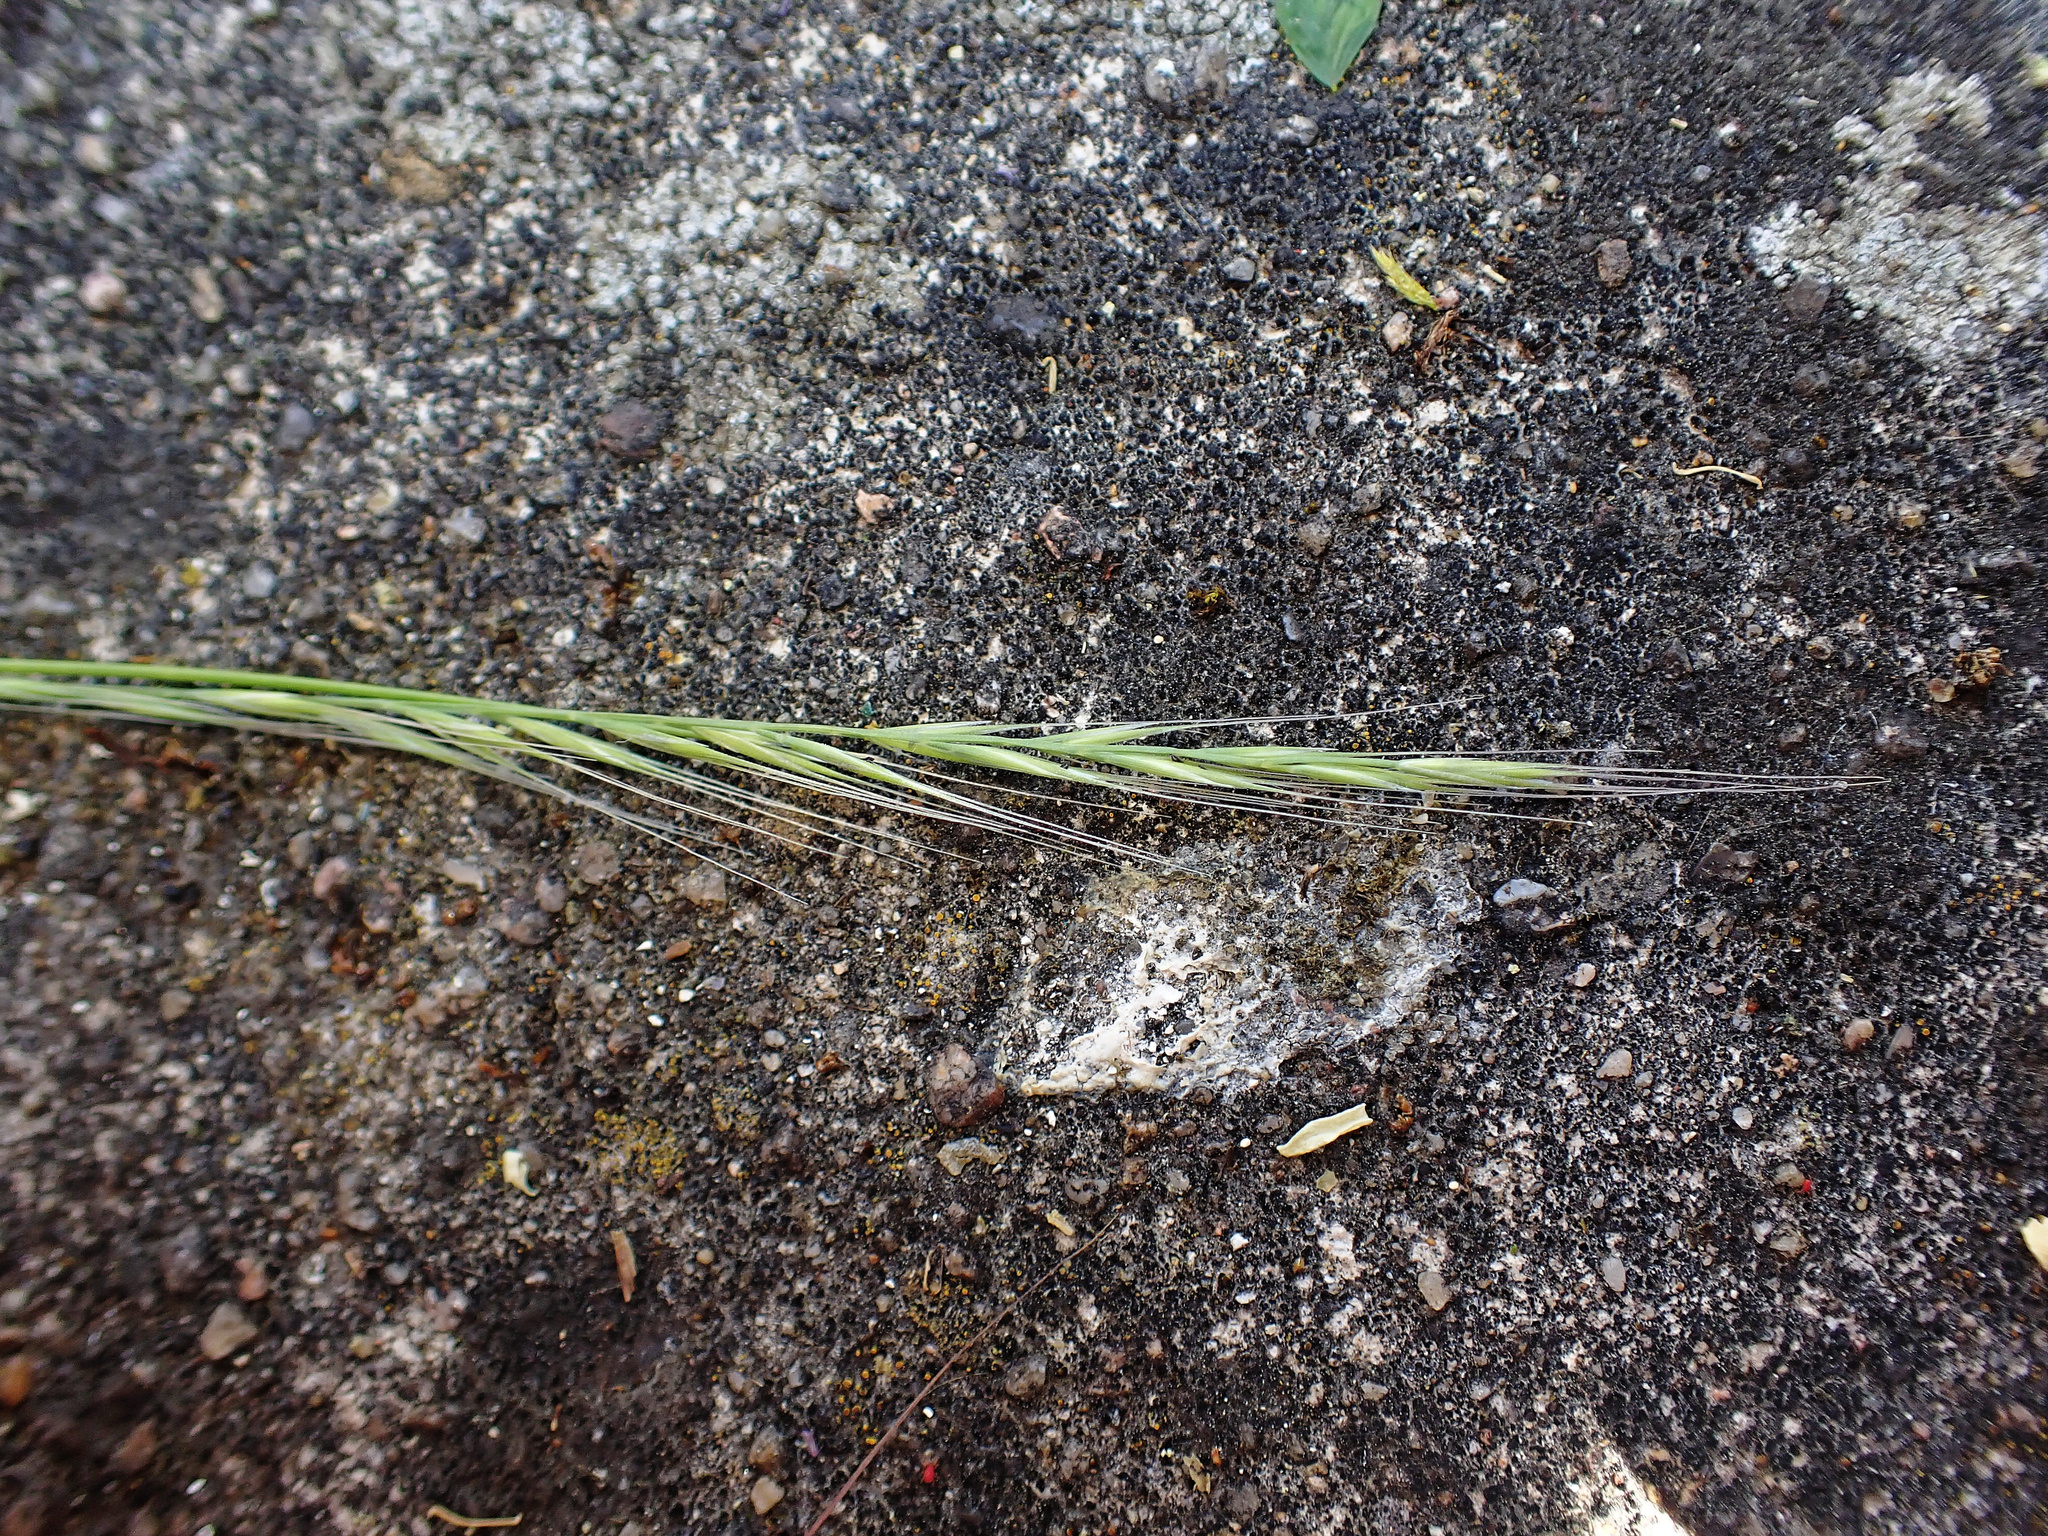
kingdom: Plantae
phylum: Tracheophyta
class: Liliopsida
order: Poales
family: Poaceae
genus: Festuca
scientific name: Festuca myuros
